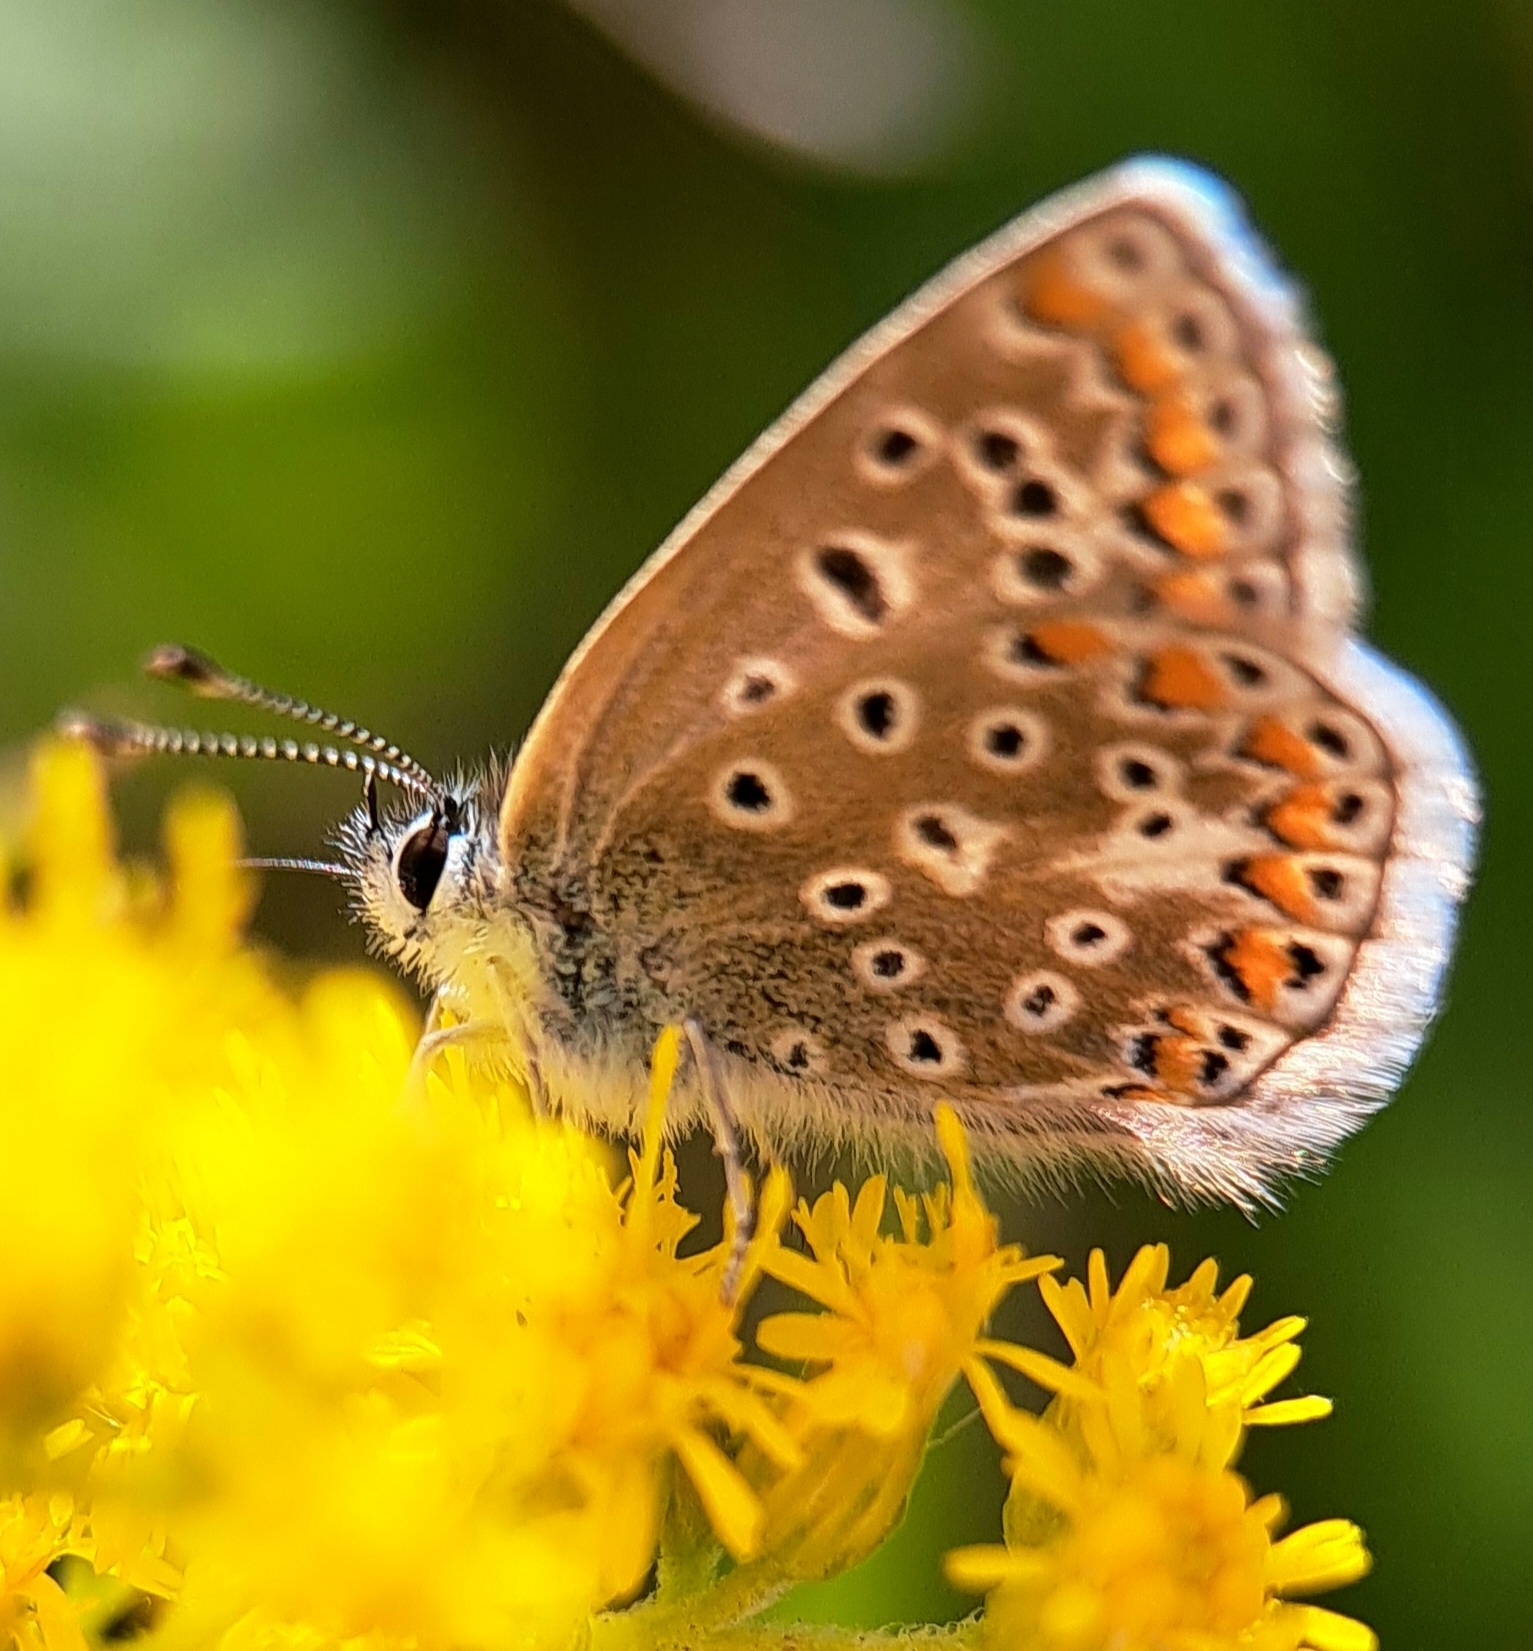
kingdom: Animalia
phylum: Arthropoda
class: Insecta
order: Lepidoptera
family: Lycaenidae
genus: Polyommatus
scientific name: Polyommatus icarus
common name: Common blue
